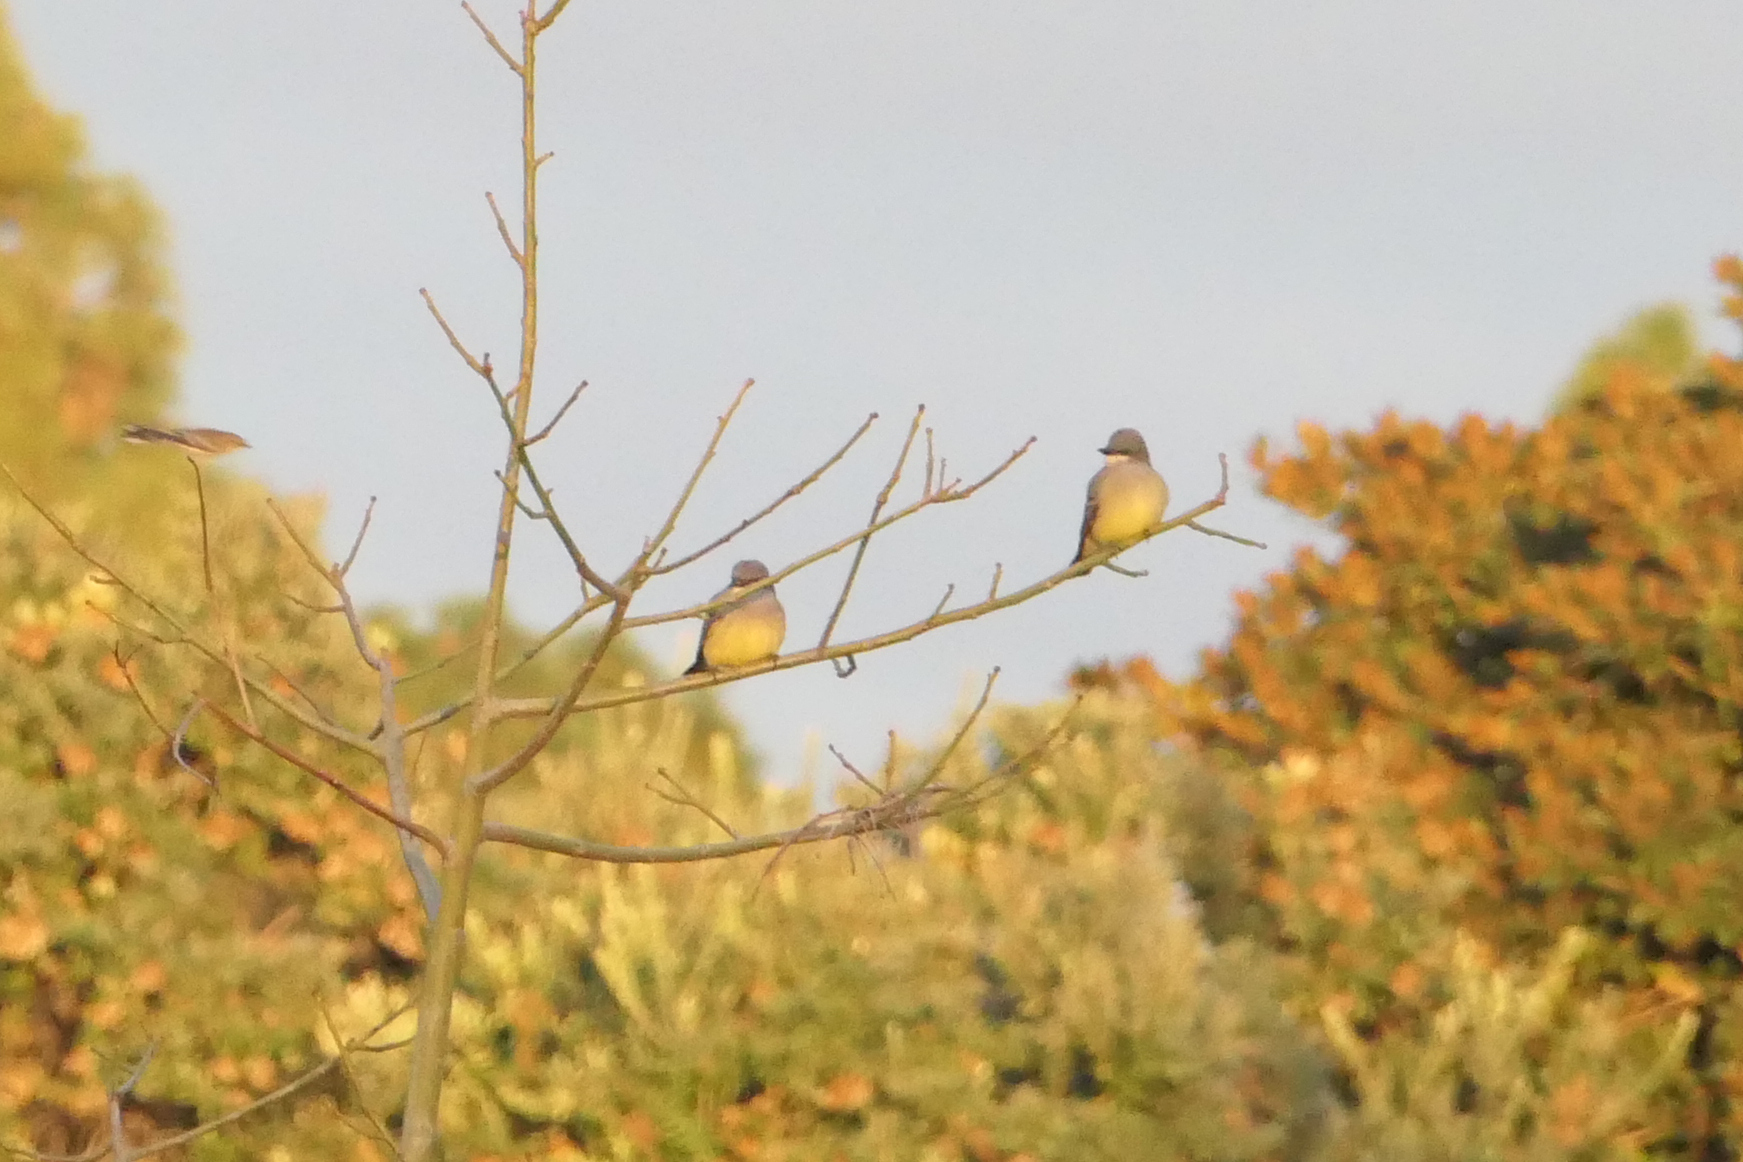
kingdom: Animalia
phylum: Chordata
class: Aves
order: Passeriformes
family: Tyrannidae
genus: Tyrannus
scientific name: Tyrannus vociferans
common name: Cassin's kingbird
